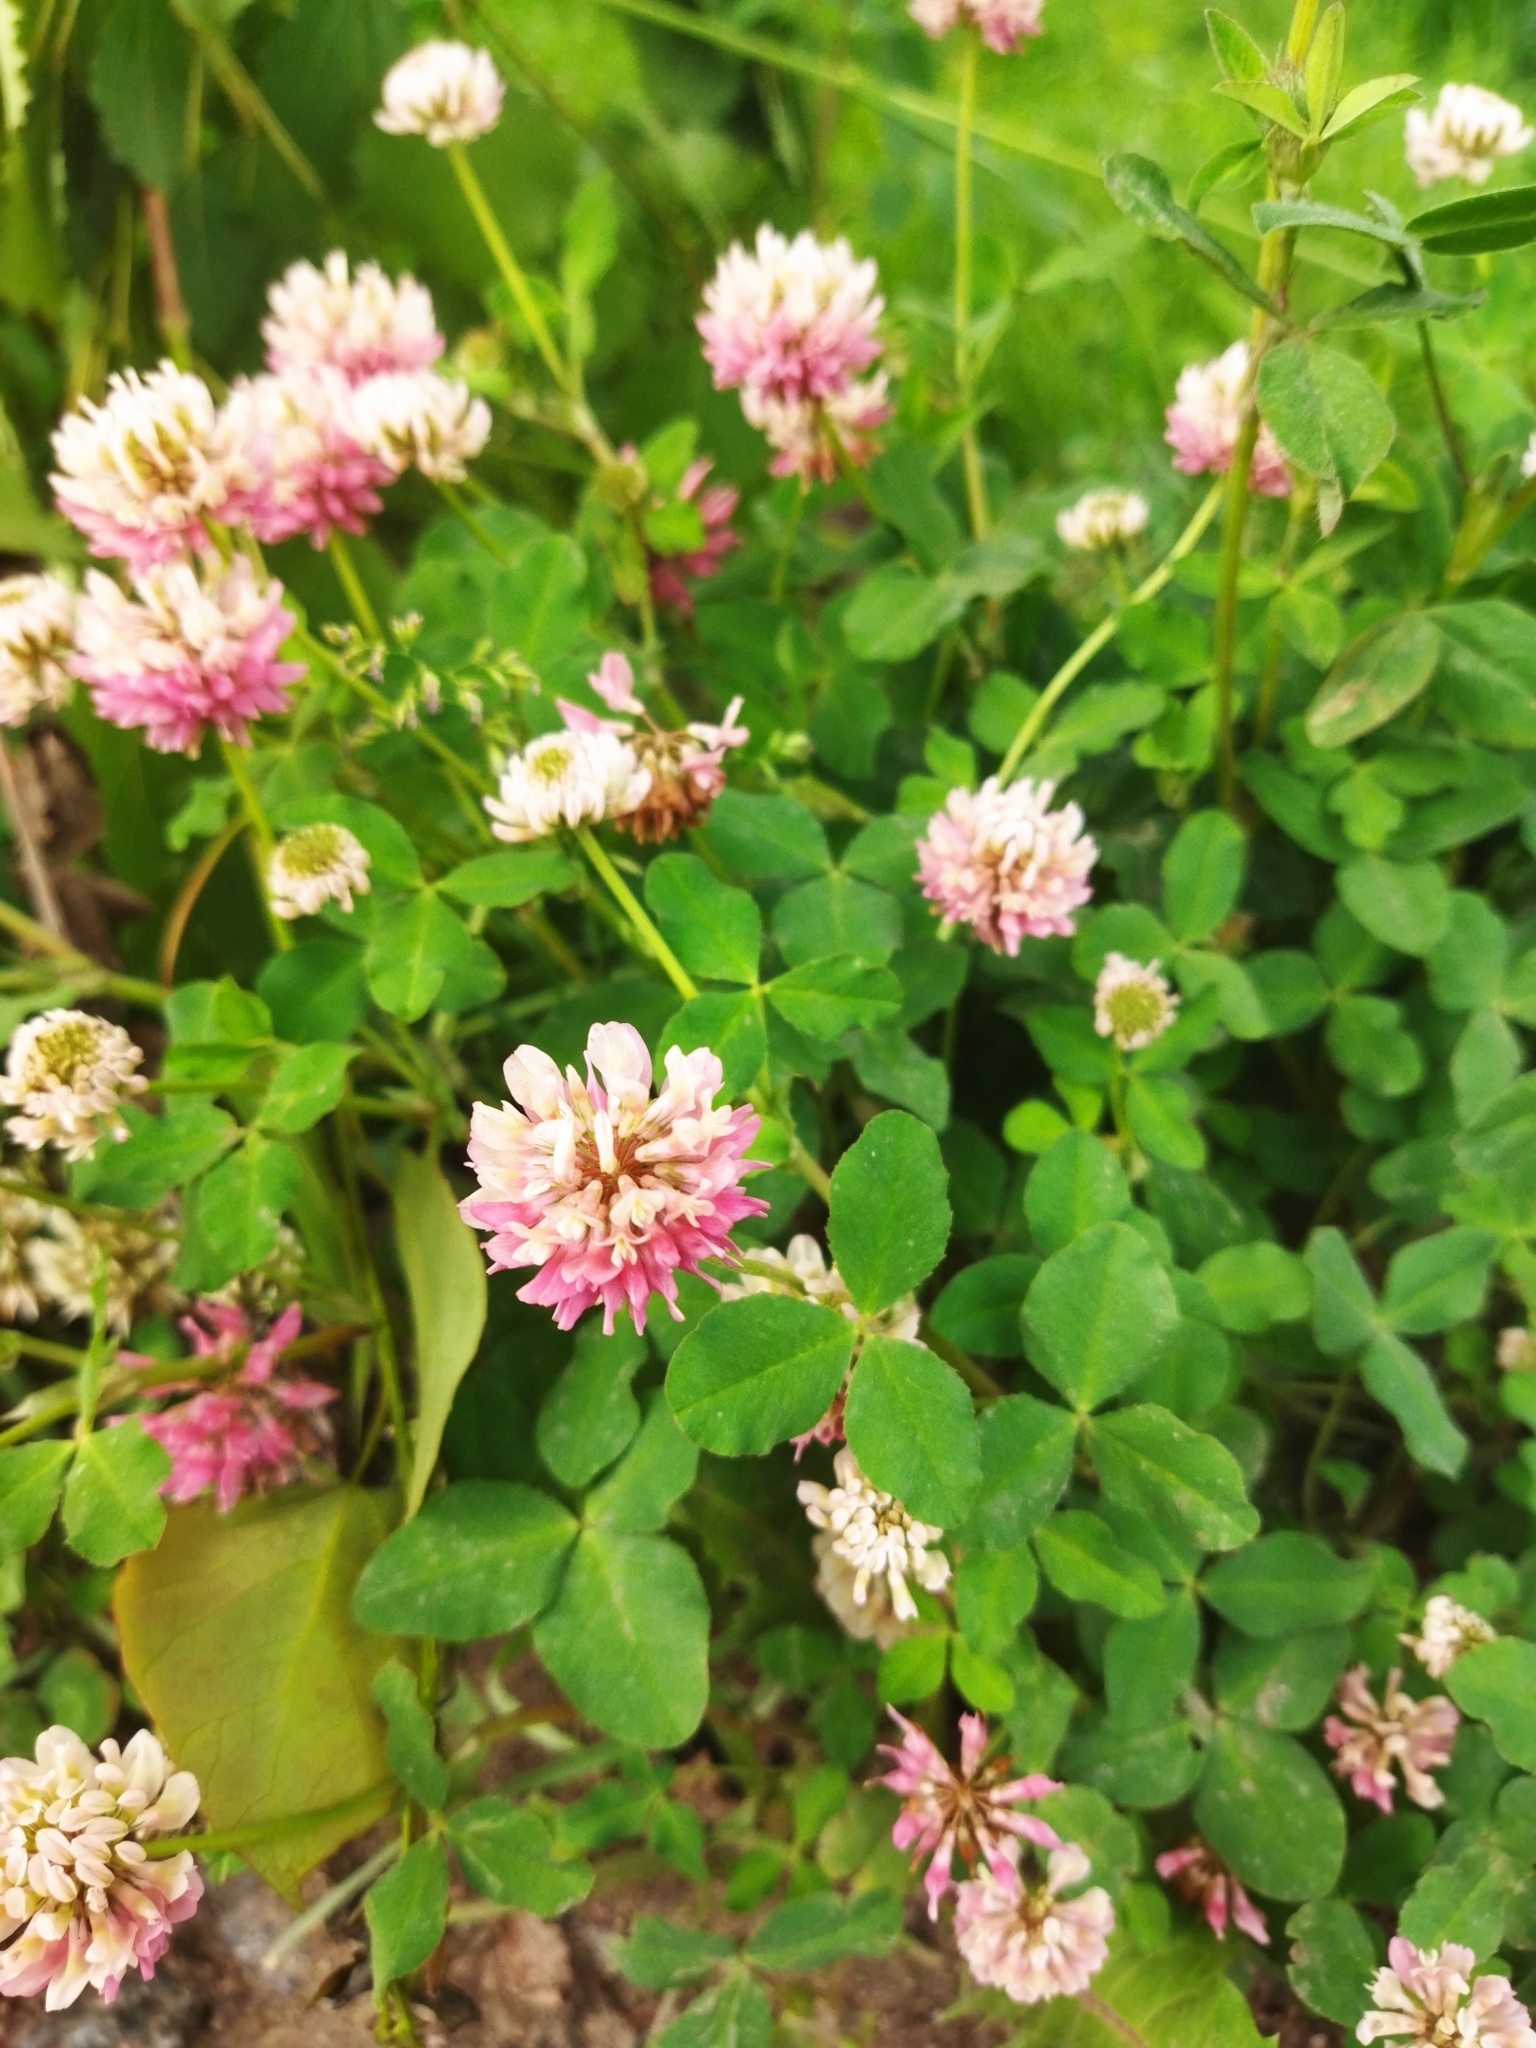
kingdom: Plantae
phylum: Tracheophyta
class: Magnoliopsida
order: Fabales
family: Fabaceae
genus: Trifolium
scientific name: Trifolium hybridum
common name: Alsike clover
